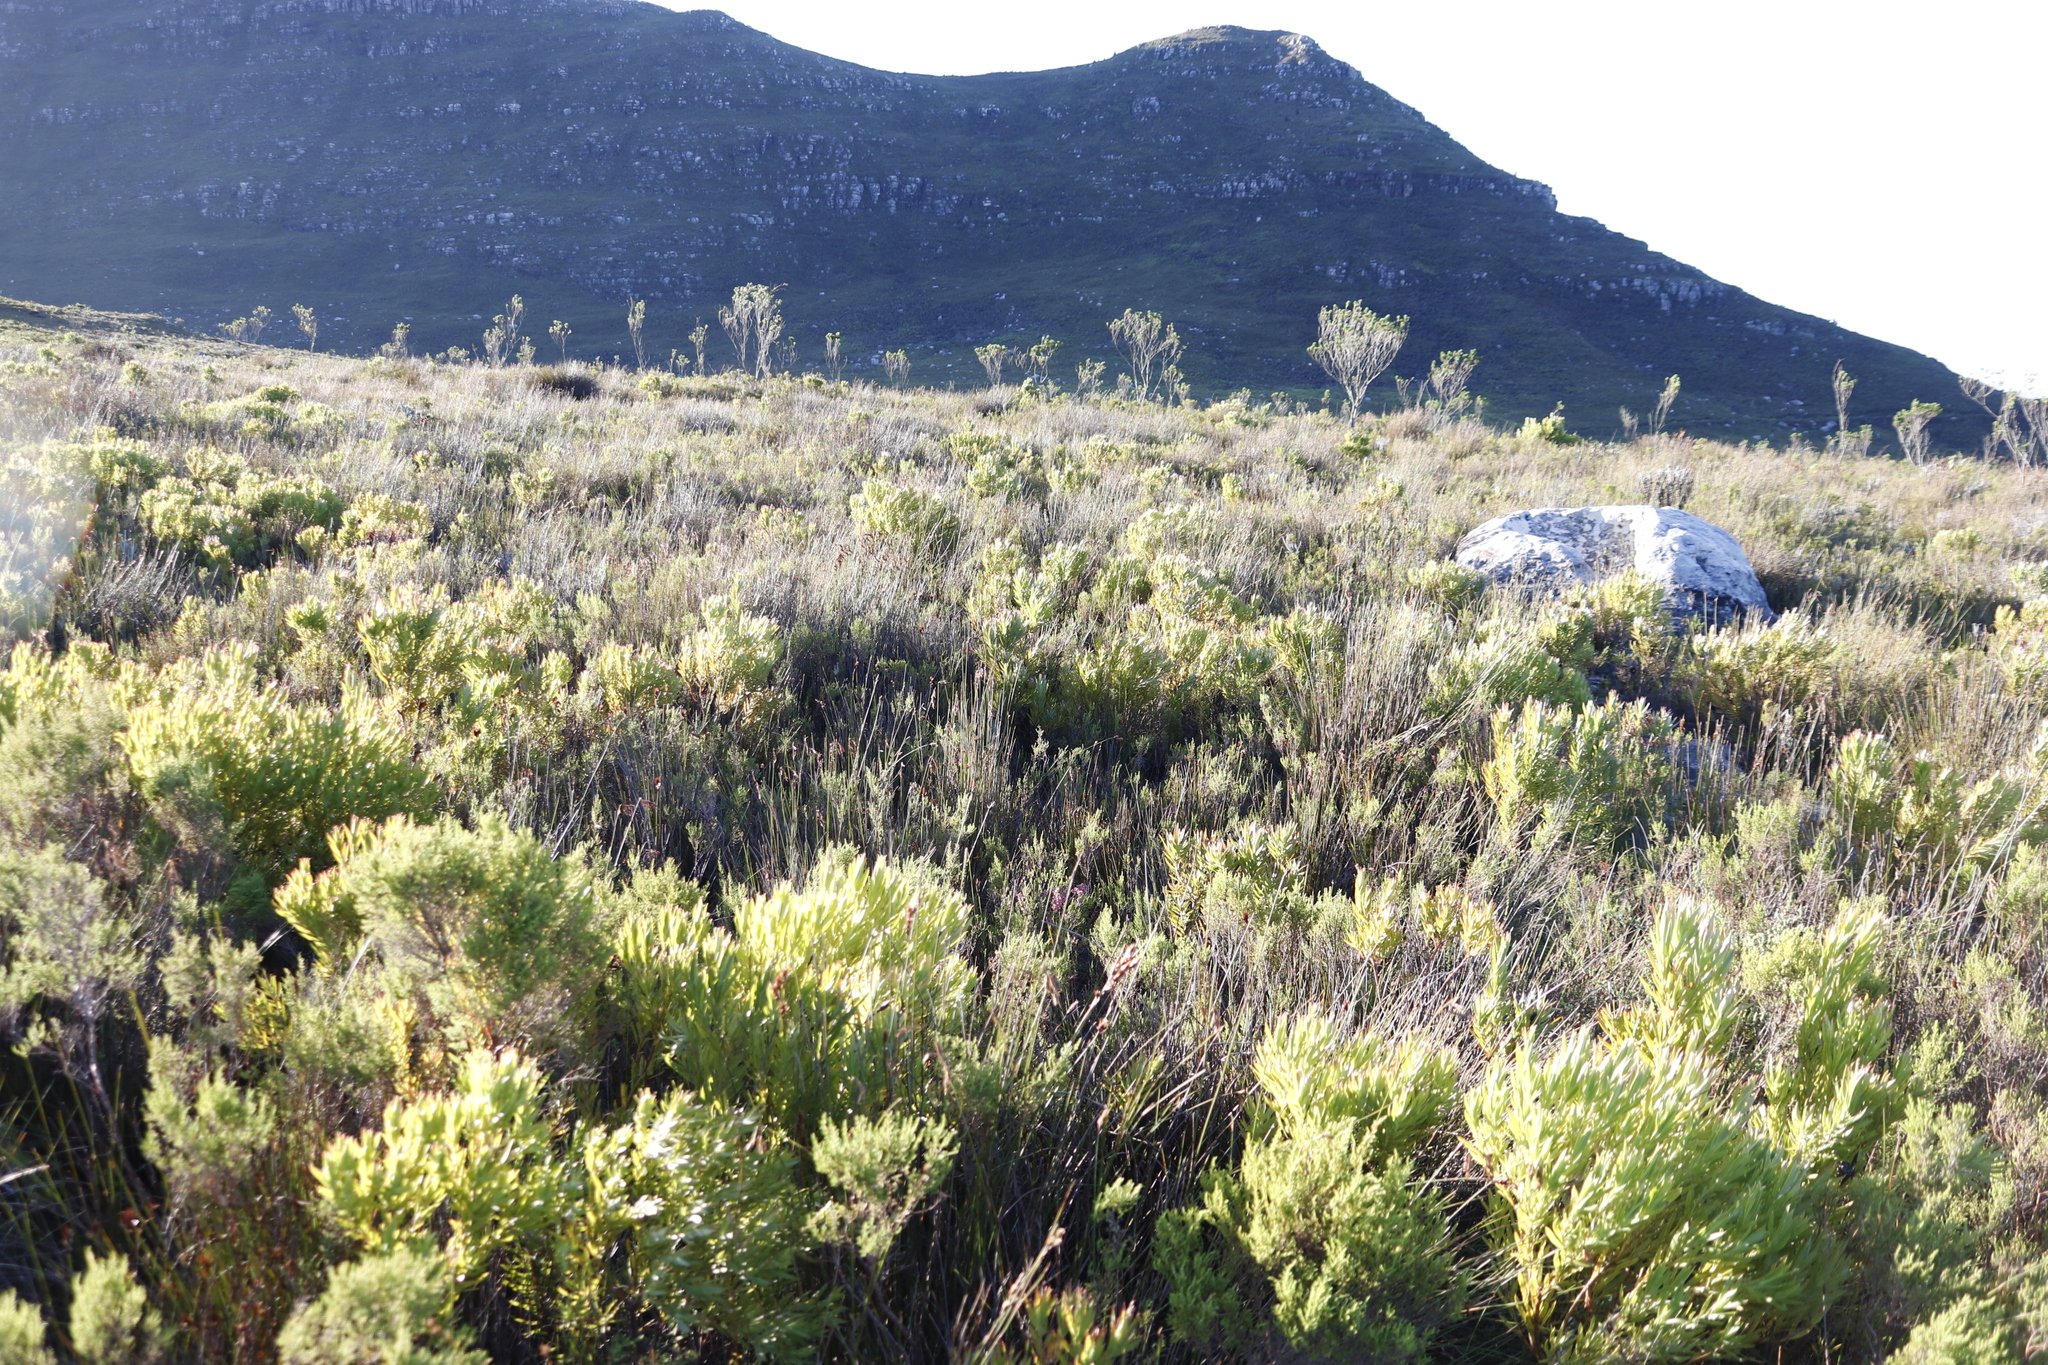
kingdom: Plantae
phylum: Tracheophyta
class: Magnoliopsida
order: Proteales
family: Proteaceae
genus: Leucadendron
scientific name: Leucadendron xanthoconus
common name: Sickle-leaf conebush
